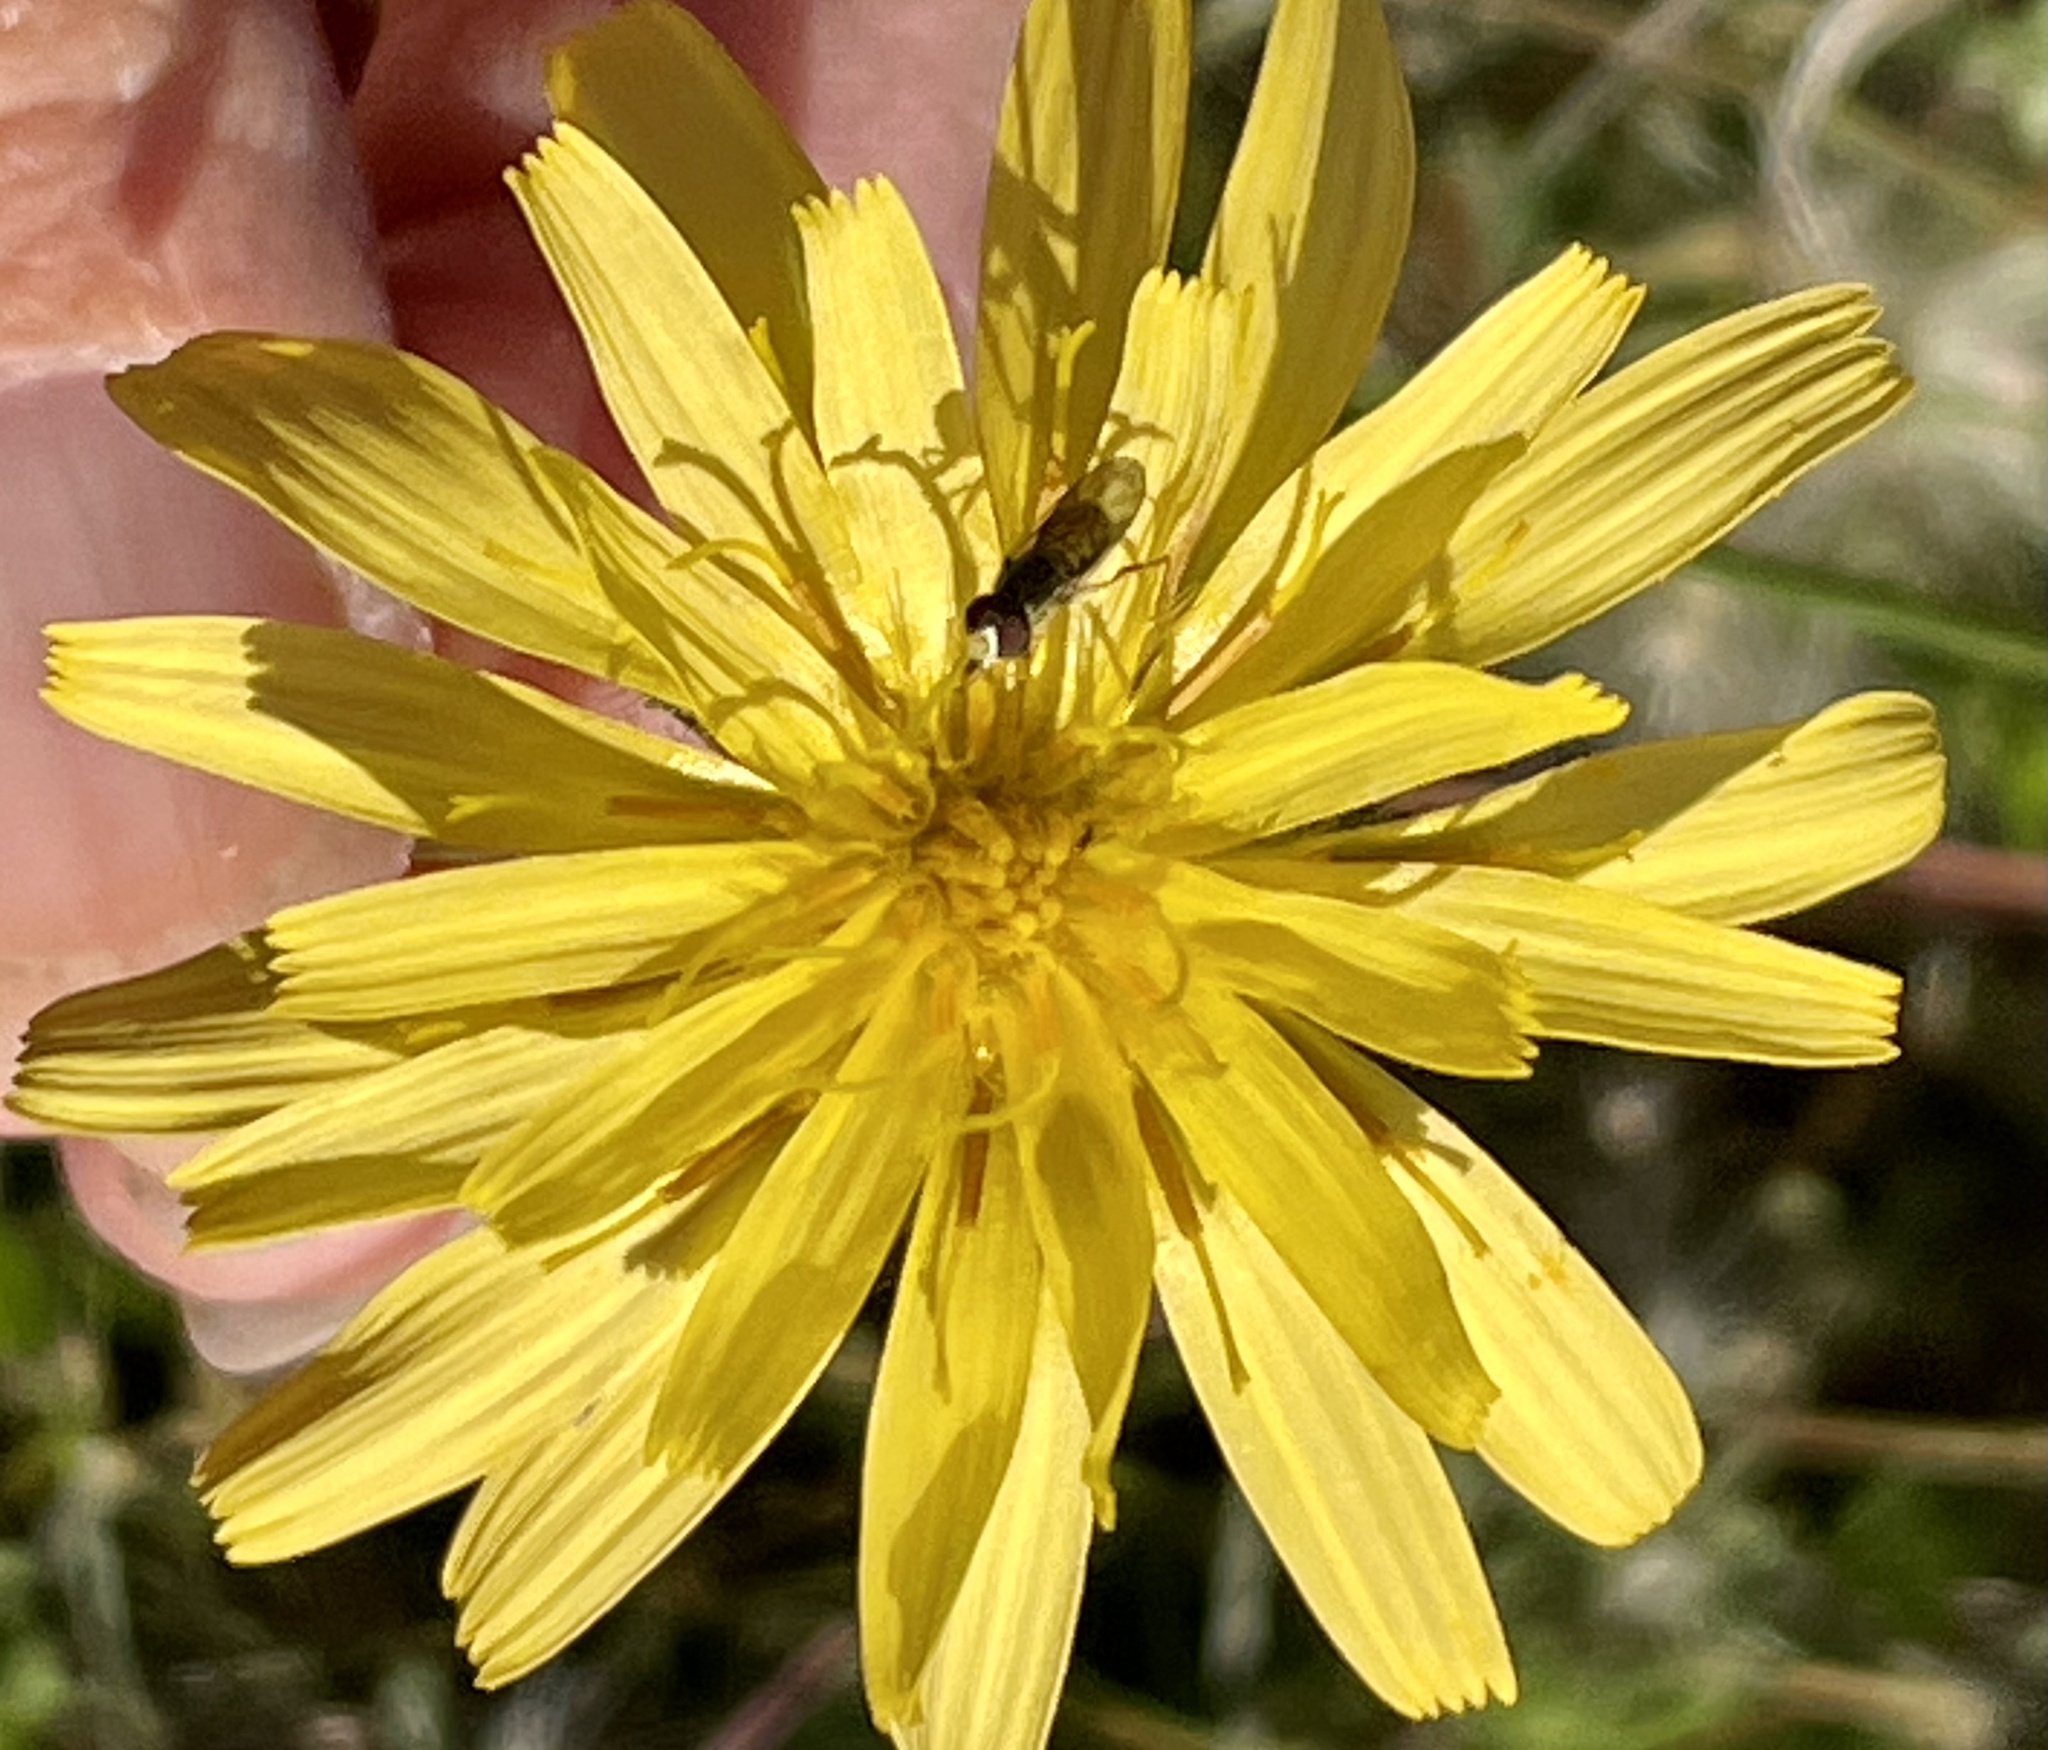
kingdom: Plantae
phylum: Tracheophyta
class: Magnoliopsida
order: Asterales
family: Asteraceae
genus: Microseris
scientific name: Microseris paludosa
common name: Marsh silverpuffs
